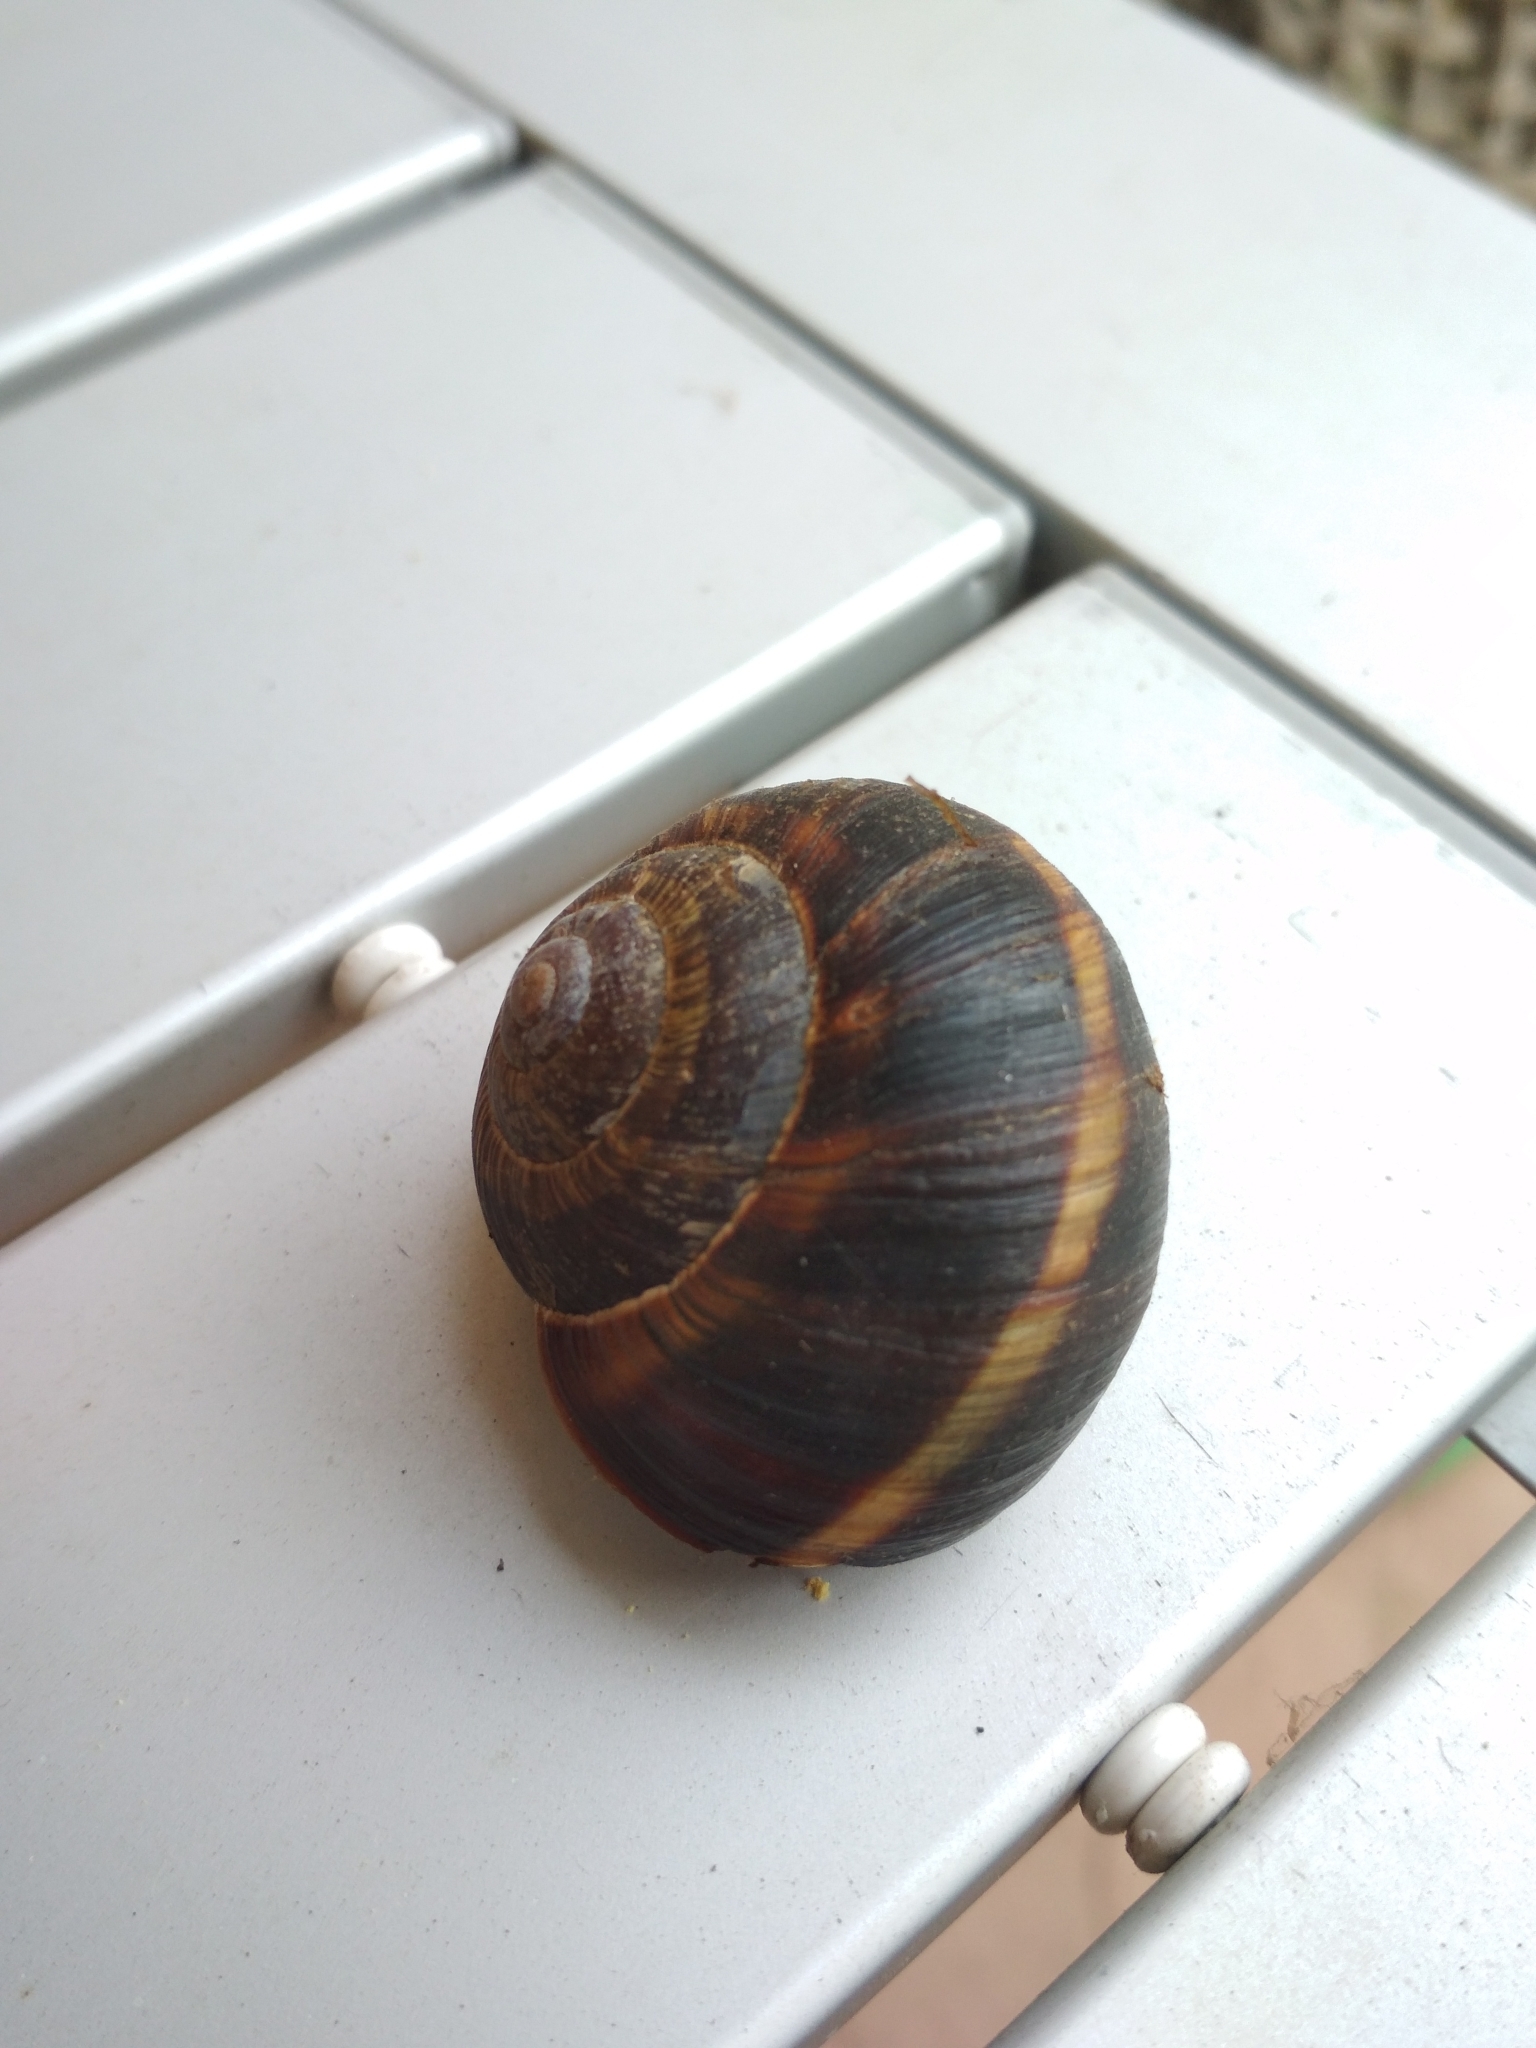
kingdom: Animalia
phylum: Mollusca
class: Gastropoda
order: Stylommatophora
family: Helicidae
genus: Helix
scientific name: Helix lucorum
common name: Turkish snail
